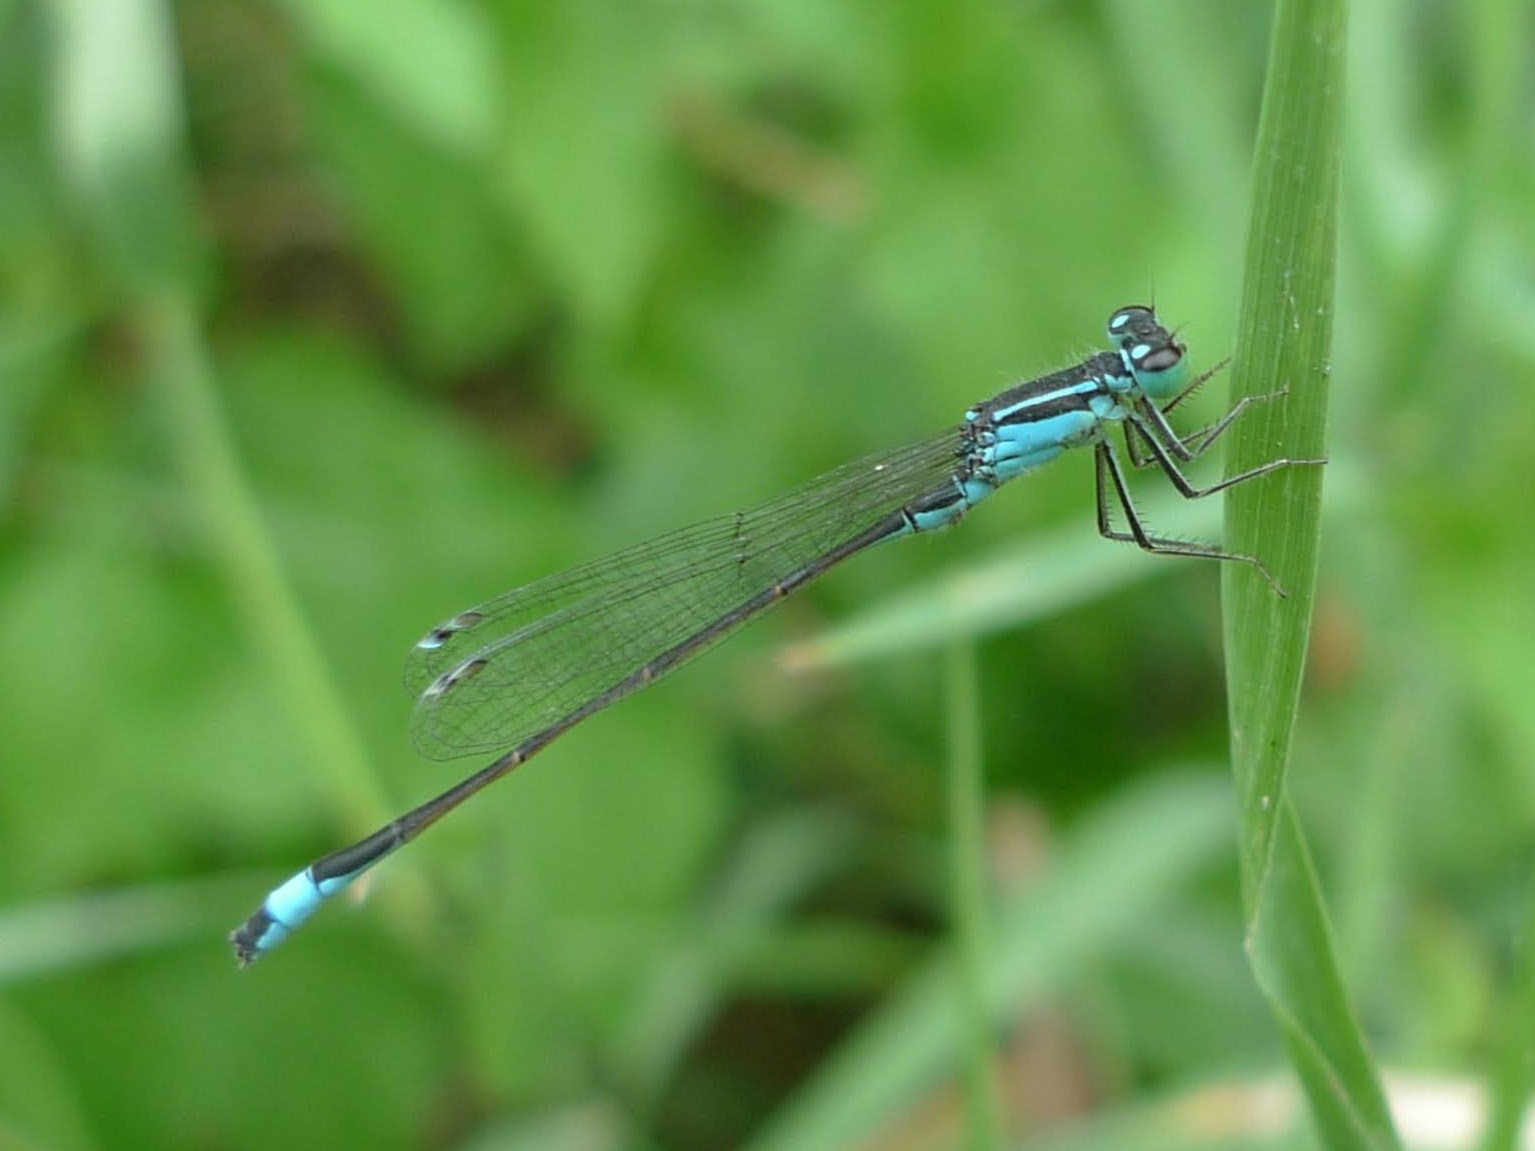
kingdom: Animalia
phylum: Arthropoda
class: Insecta
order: Odonata
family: Coenagrionidae
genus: Ischnura
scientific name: Ischnura elegans
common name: Blue-tailed damselfly
